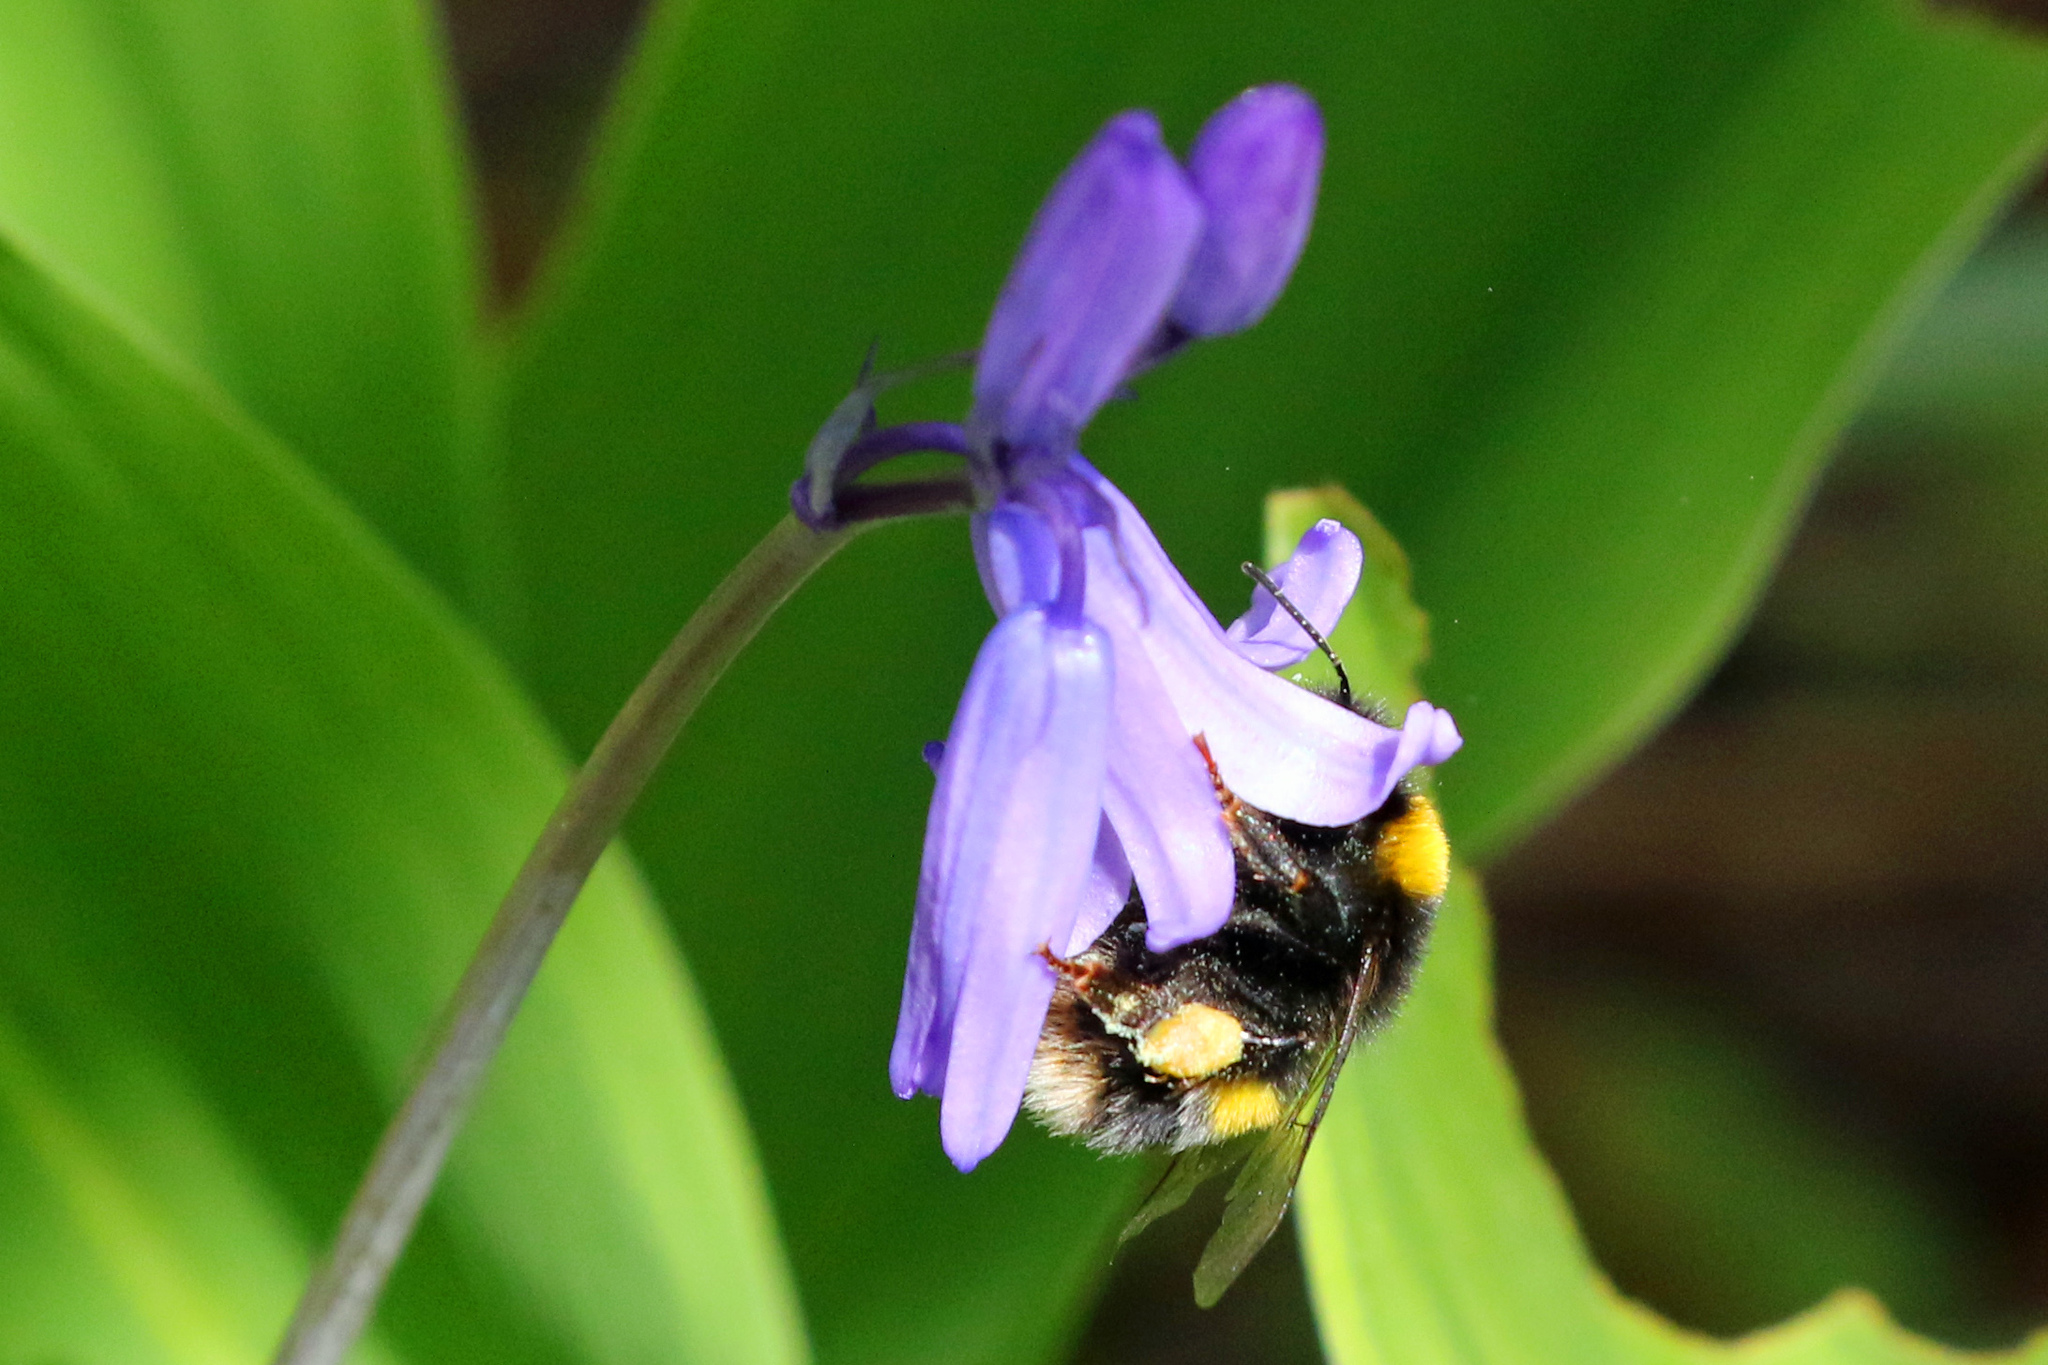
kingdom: Animalia
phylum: Arthropoda
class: Insecta
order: Hymenoptera
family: Apidae
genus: Bombus
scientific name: Bombus terrestris
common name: Buff-tailed bumblebee
